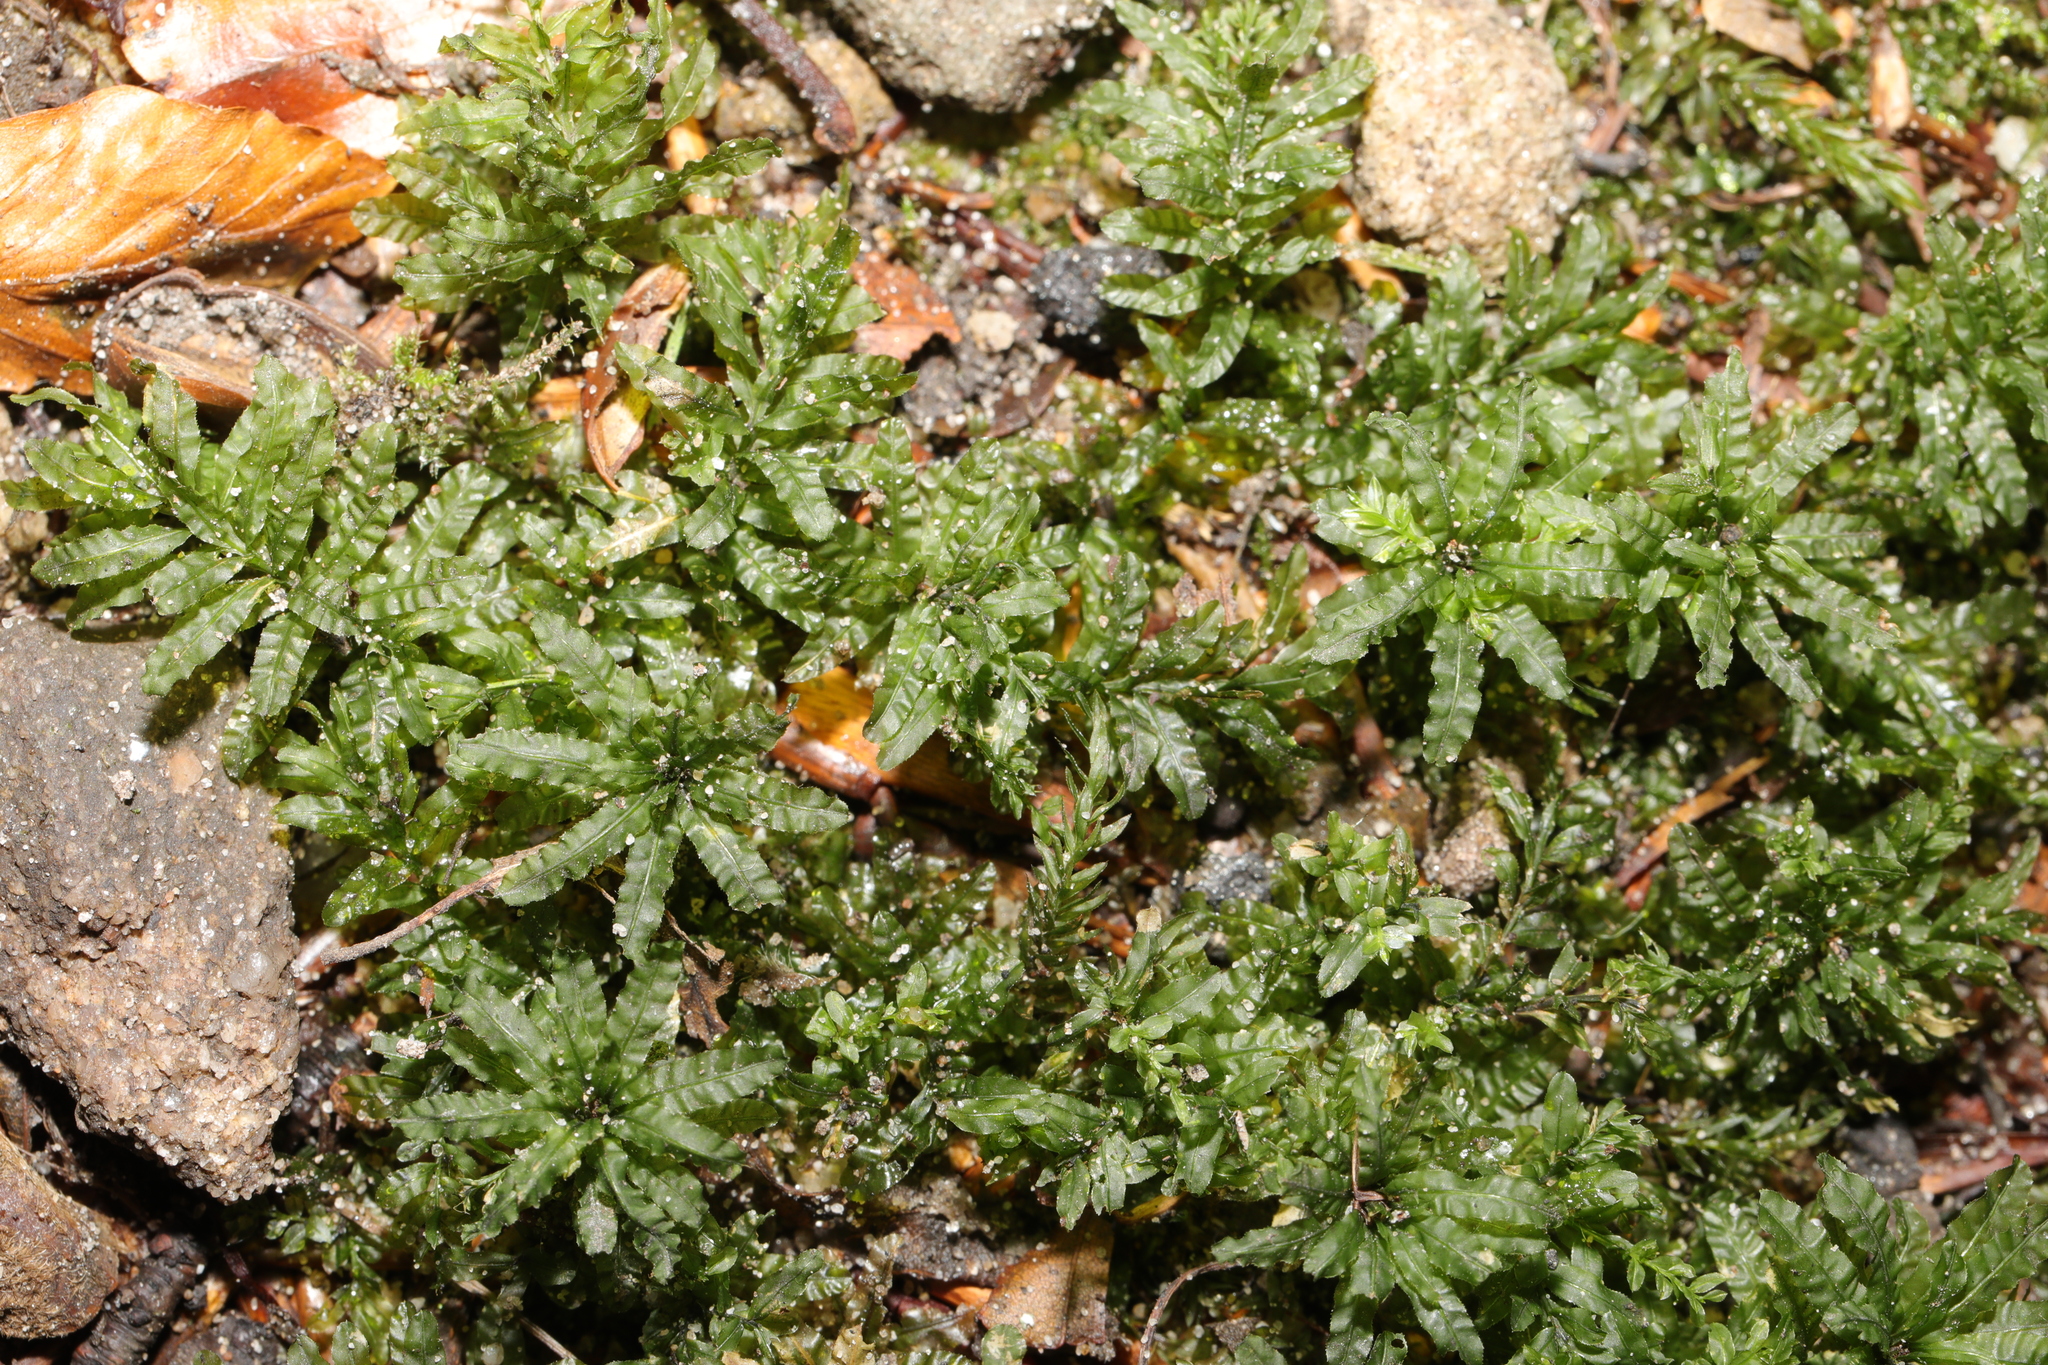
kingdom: Plantae
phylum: Bryophyta
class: Bryopsida
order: Bryales
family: Mniaceae
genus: Plagiomnium
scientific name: Plagiomnium undulatum
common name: Hart's-tongue thyme-moss
